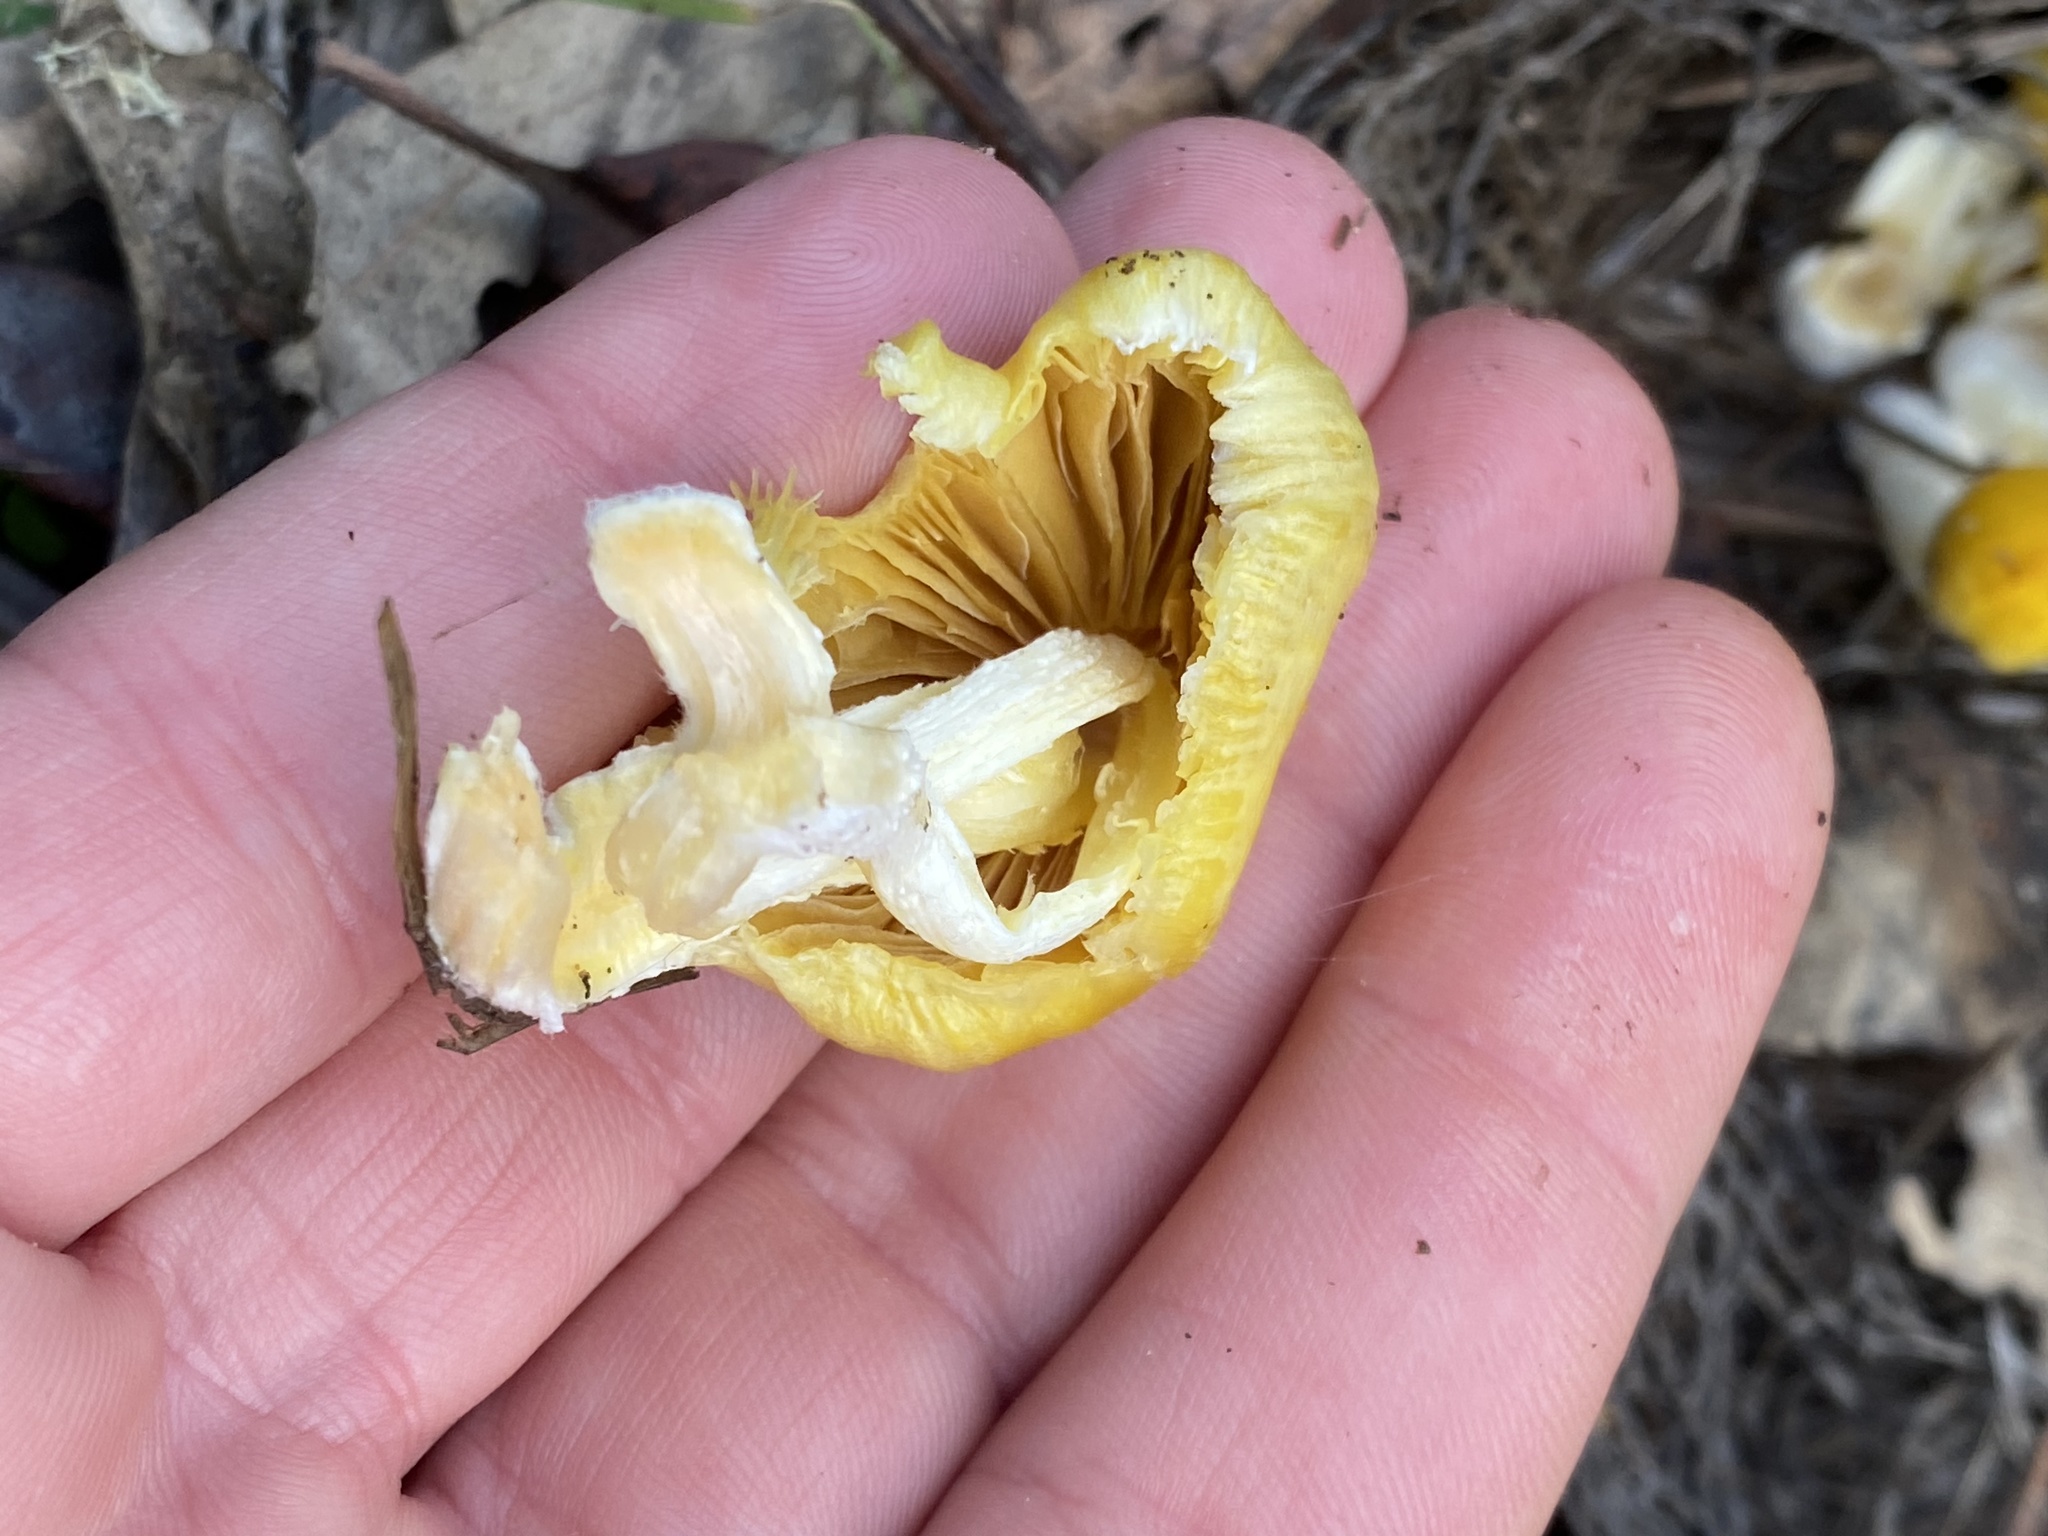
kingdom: Fungi
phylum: Basidiomycota
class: Agaricomycetes
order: Agaricales
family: Bolbitiaceae
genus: Bolbitius
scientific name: Bolbitius titubans
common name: Yellow fieldcap
